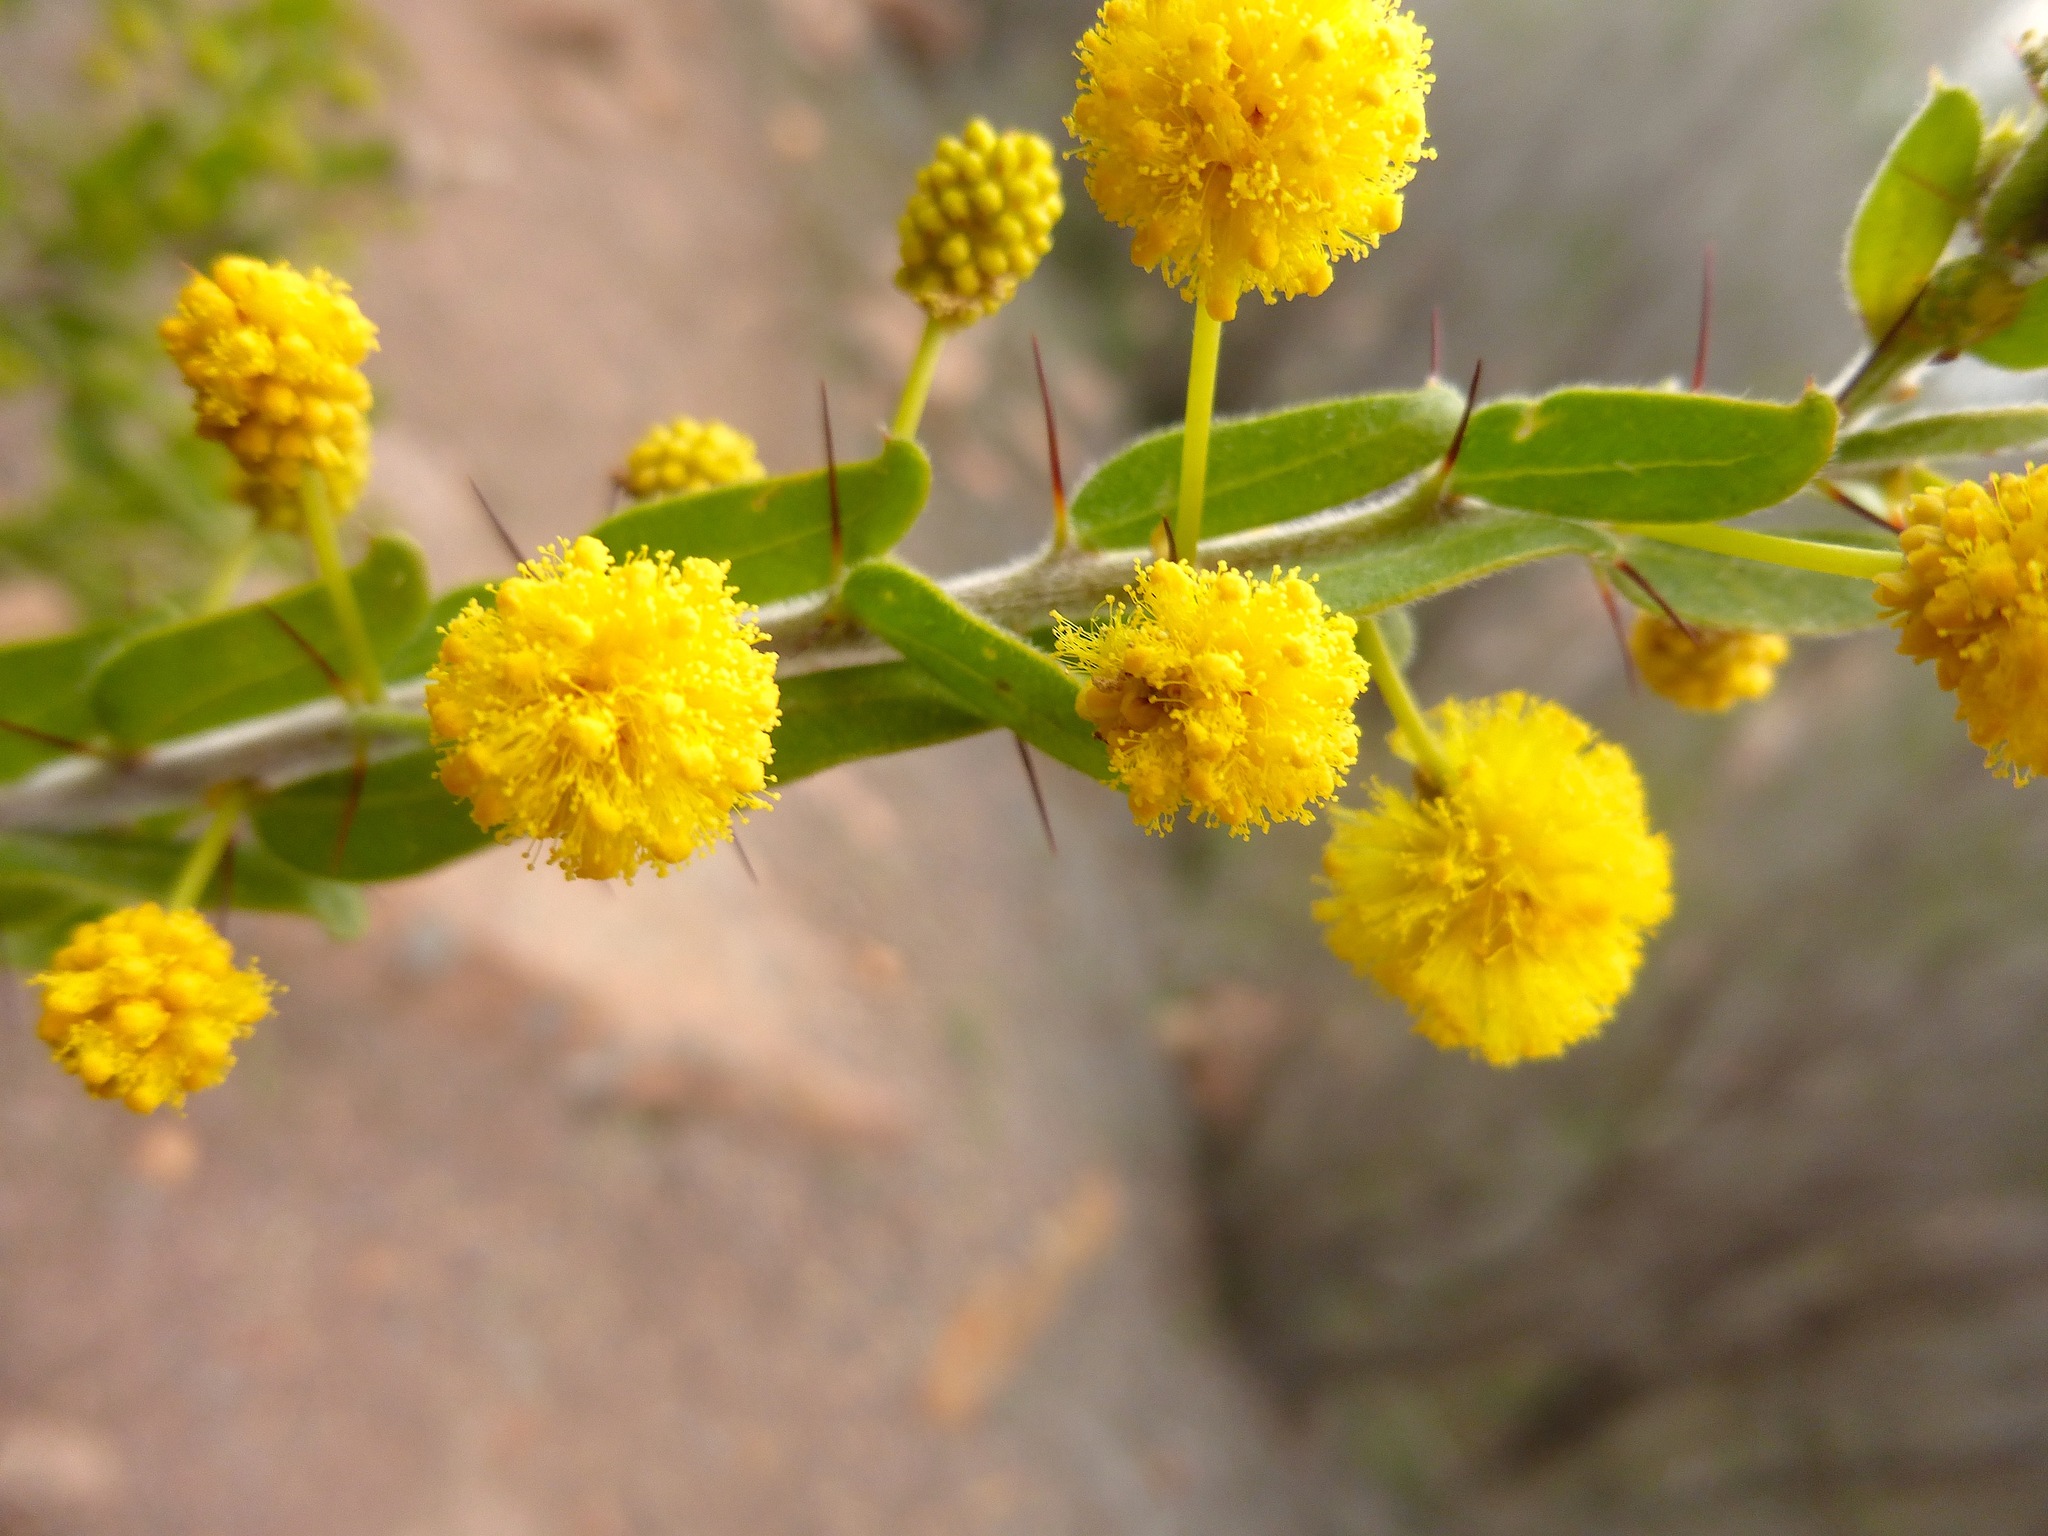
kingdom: Plantae
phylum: Tracheophyta
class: Magnoliopsida
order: Fabales
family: Fabaceae
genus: Acacia
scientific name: Acacia paradoxa
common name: Paradox acacia
